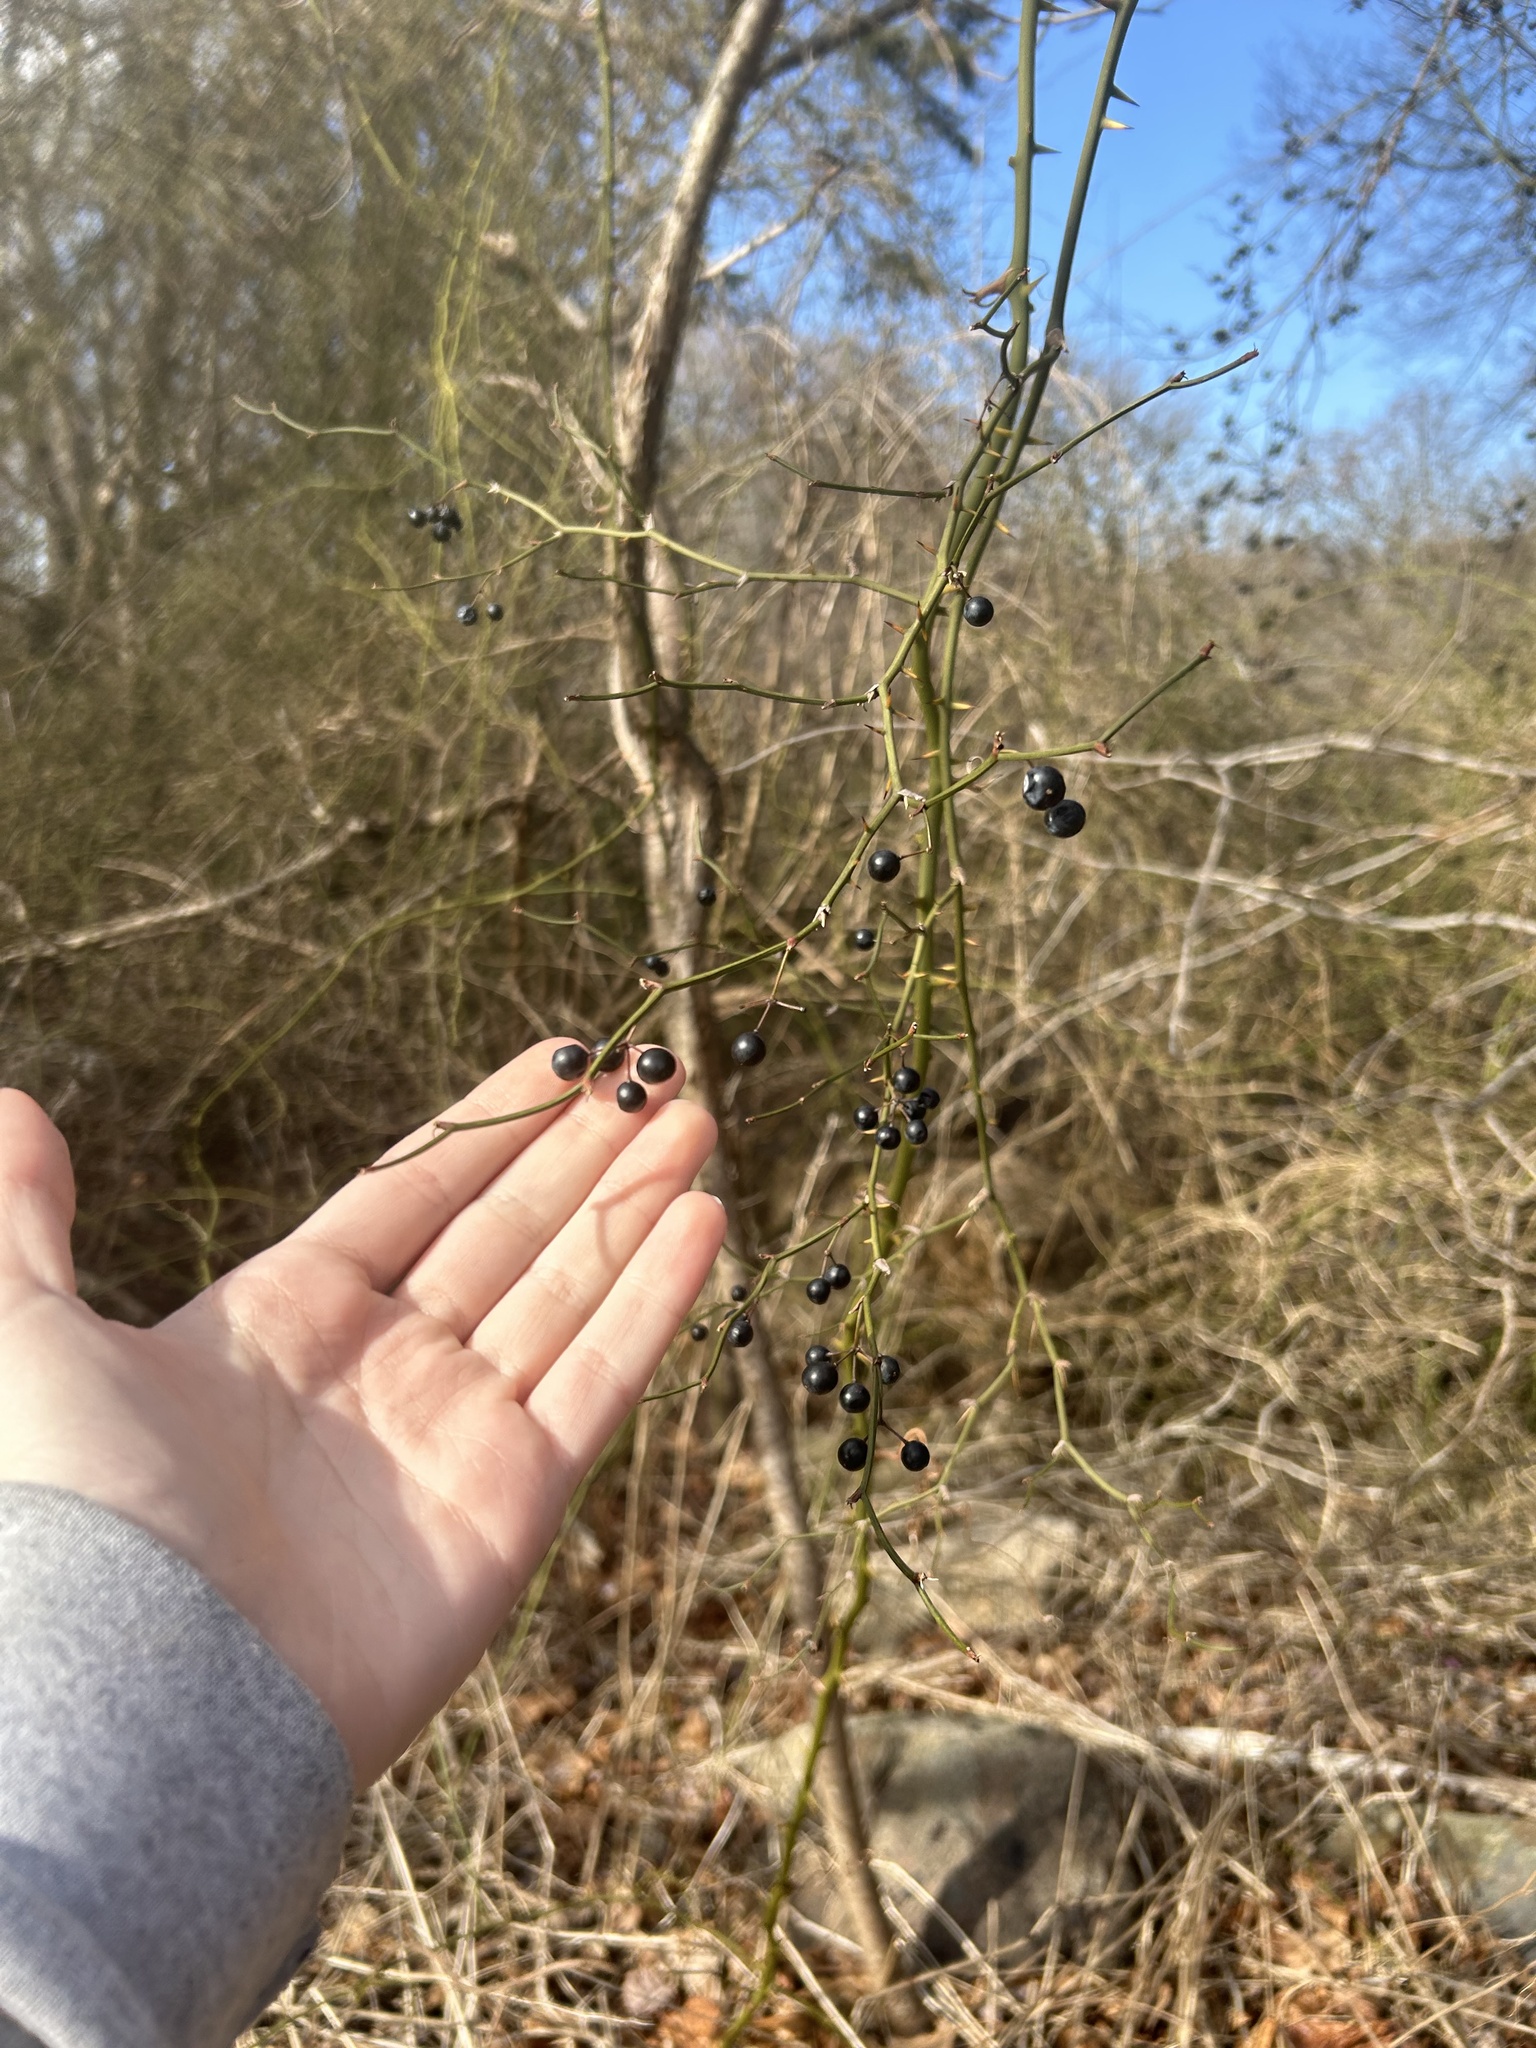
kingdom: Plantae
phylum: Tracheophyta
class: Liliopsida
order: Liliales
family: Smilacaceae
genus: Smilax
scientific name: Smilax rotundifolia
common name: Bullbriar
